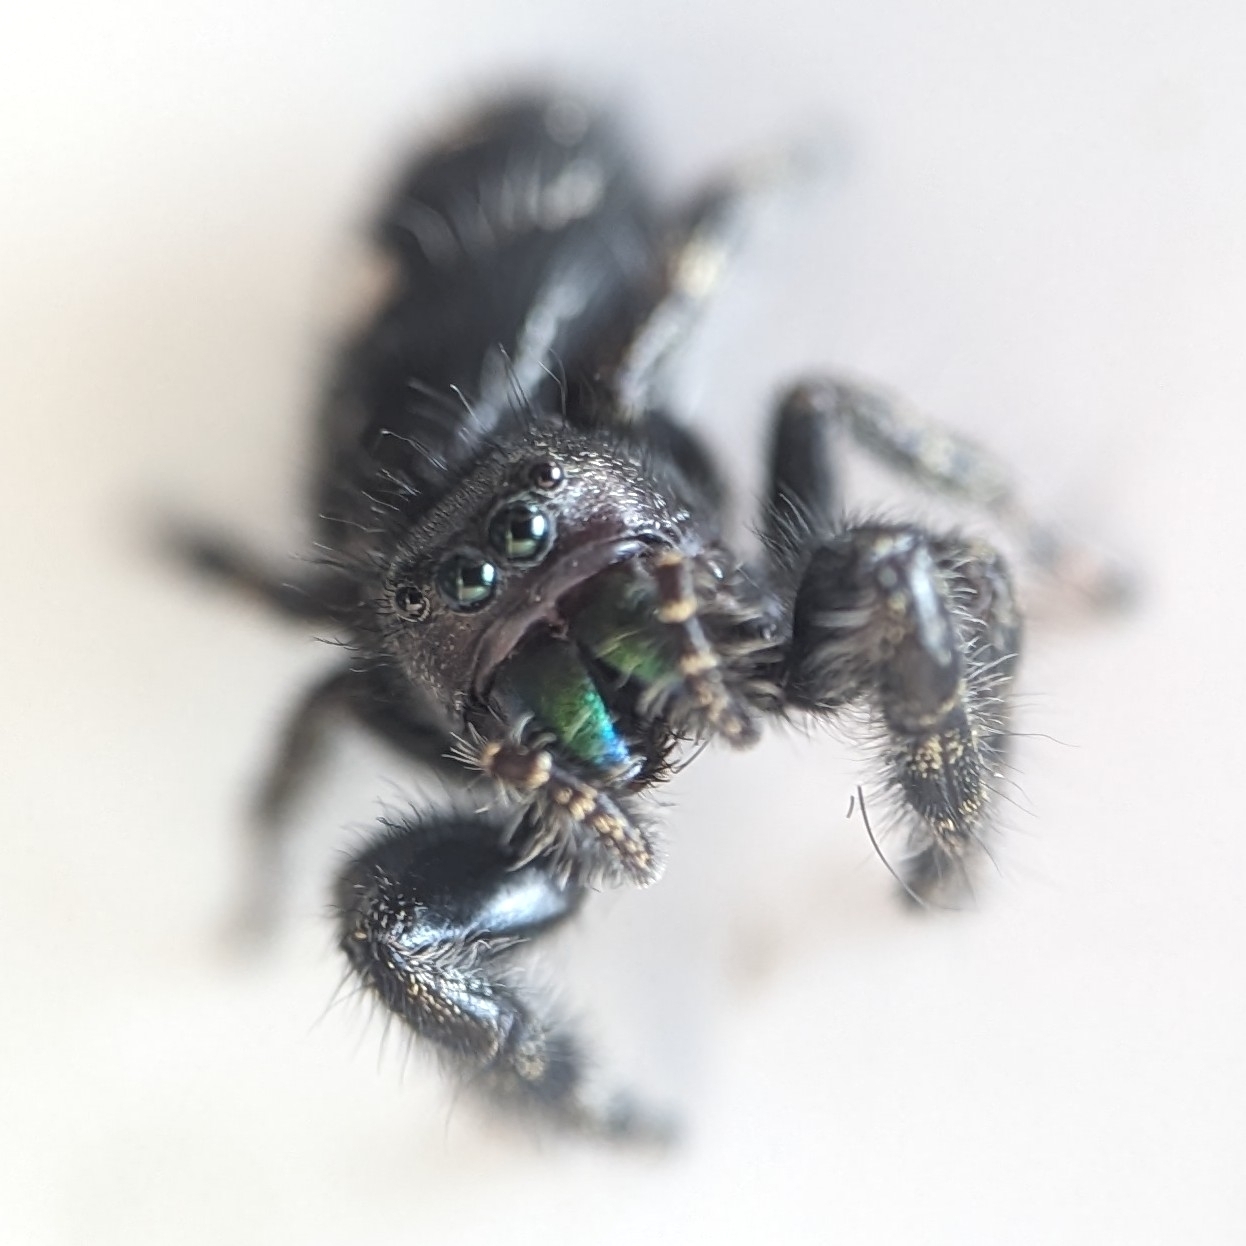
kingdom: Animalia
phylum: Arthropoda
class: Arachnida
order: Araneae
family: Salticidae
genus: Phidippus
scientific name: Phidippus audax
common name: Bold jumper
